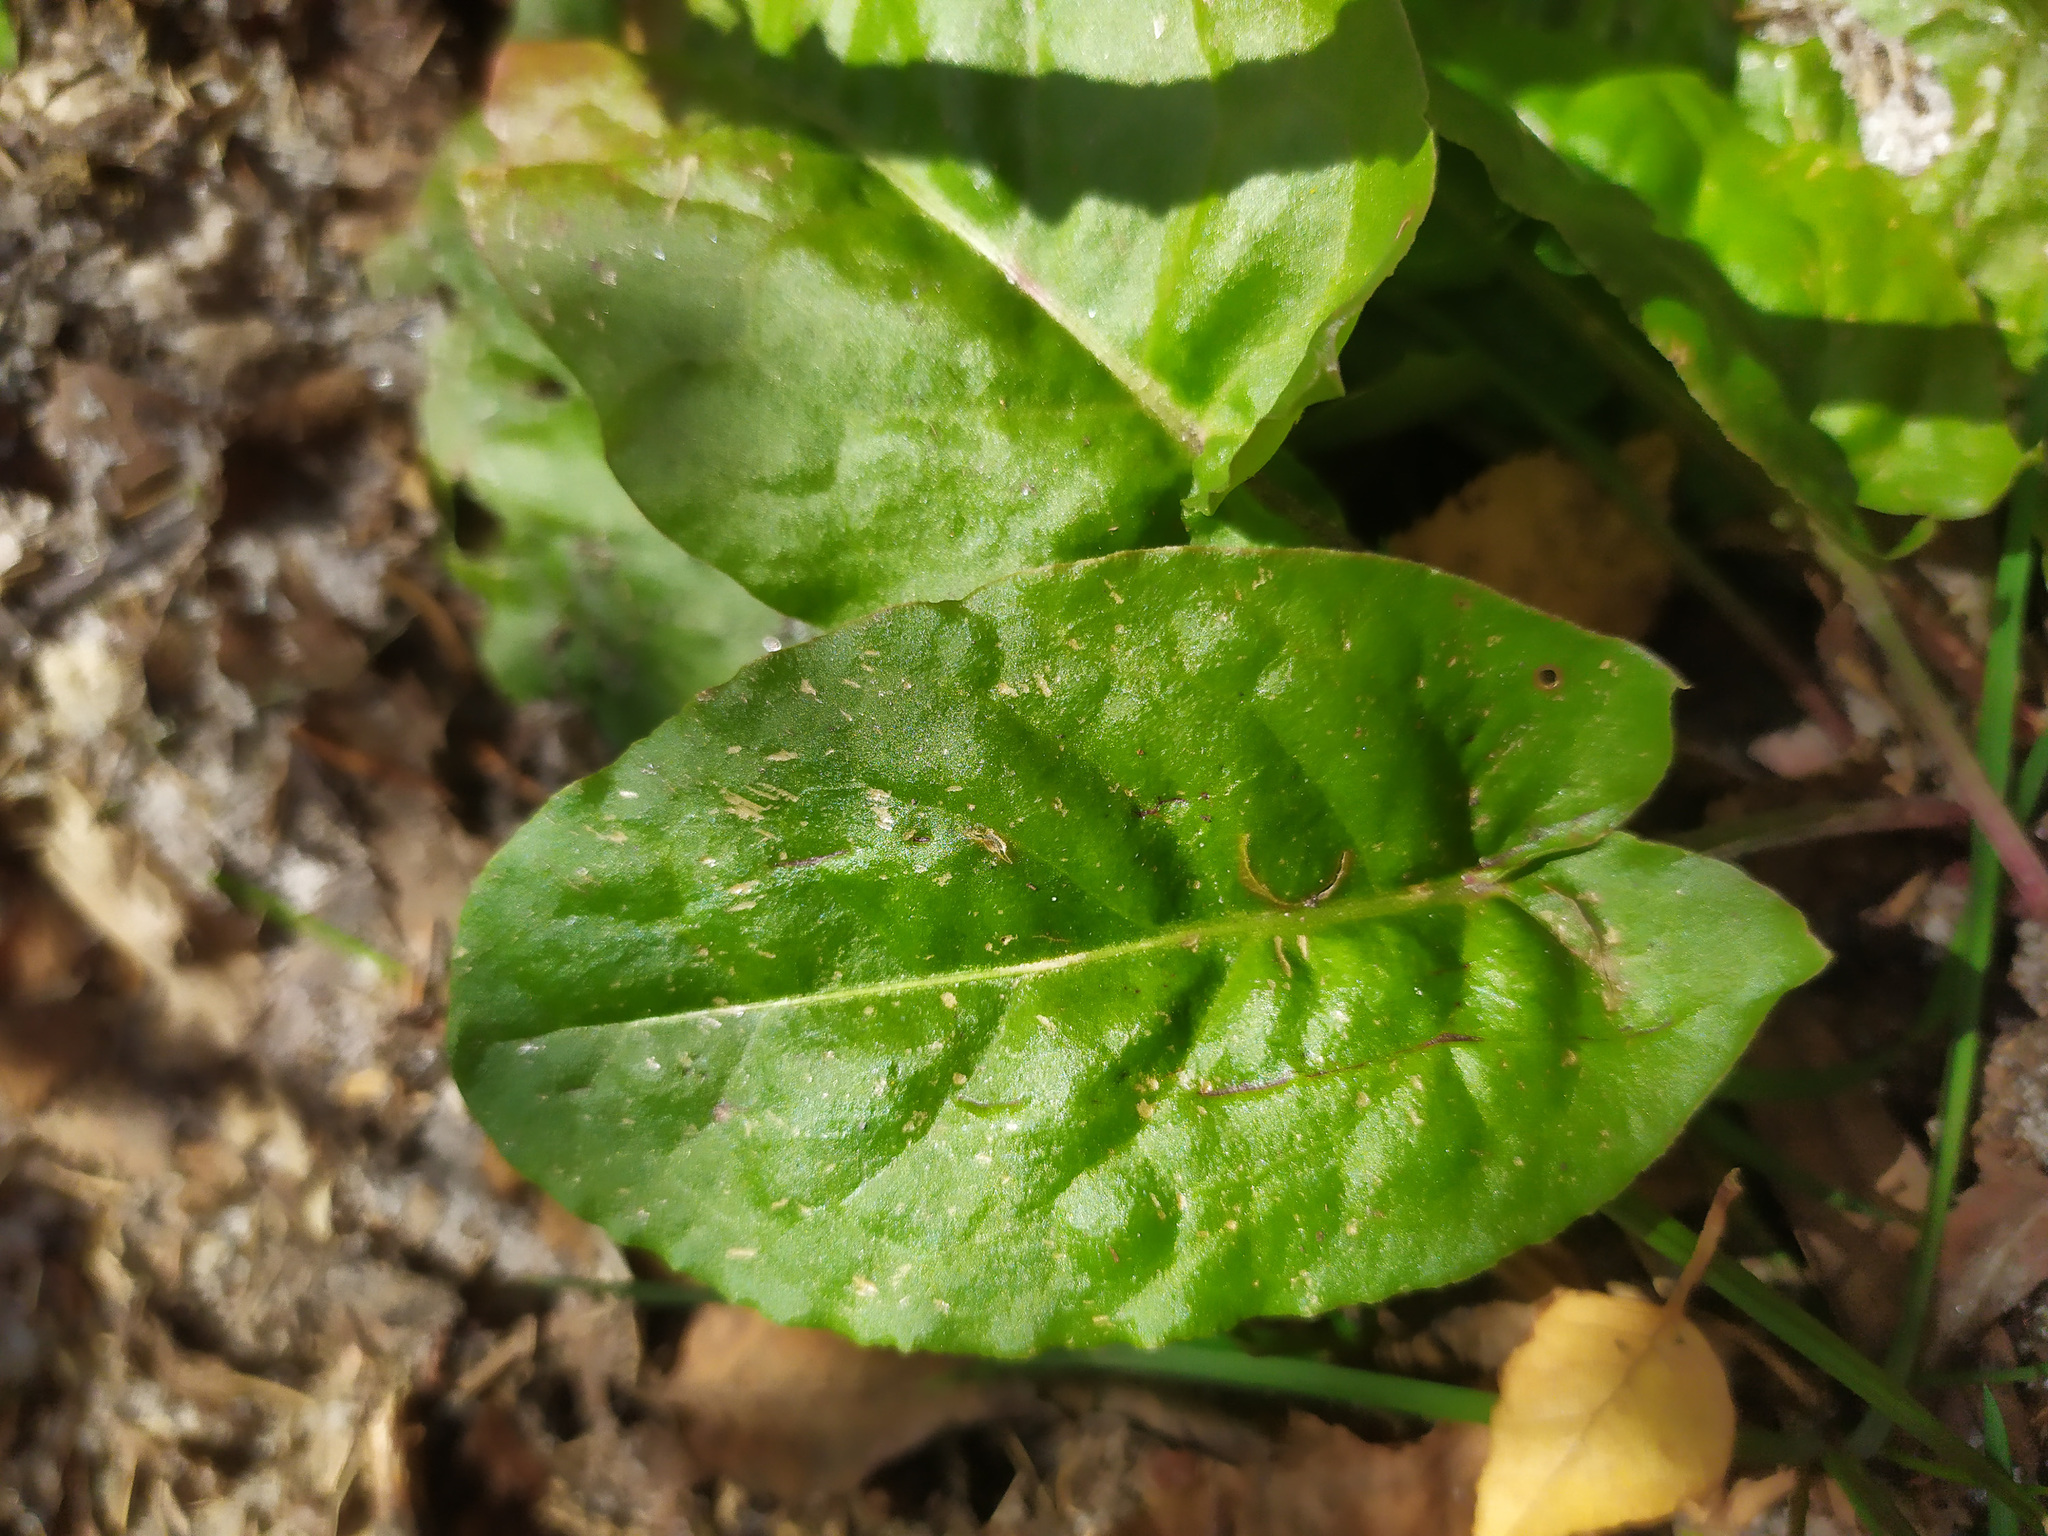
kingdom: Plantae
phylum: Tracheophyta
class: Magnoliopsida
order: Caryophyllales
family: Polygonaceae
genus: Rumex
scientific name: Rumex
